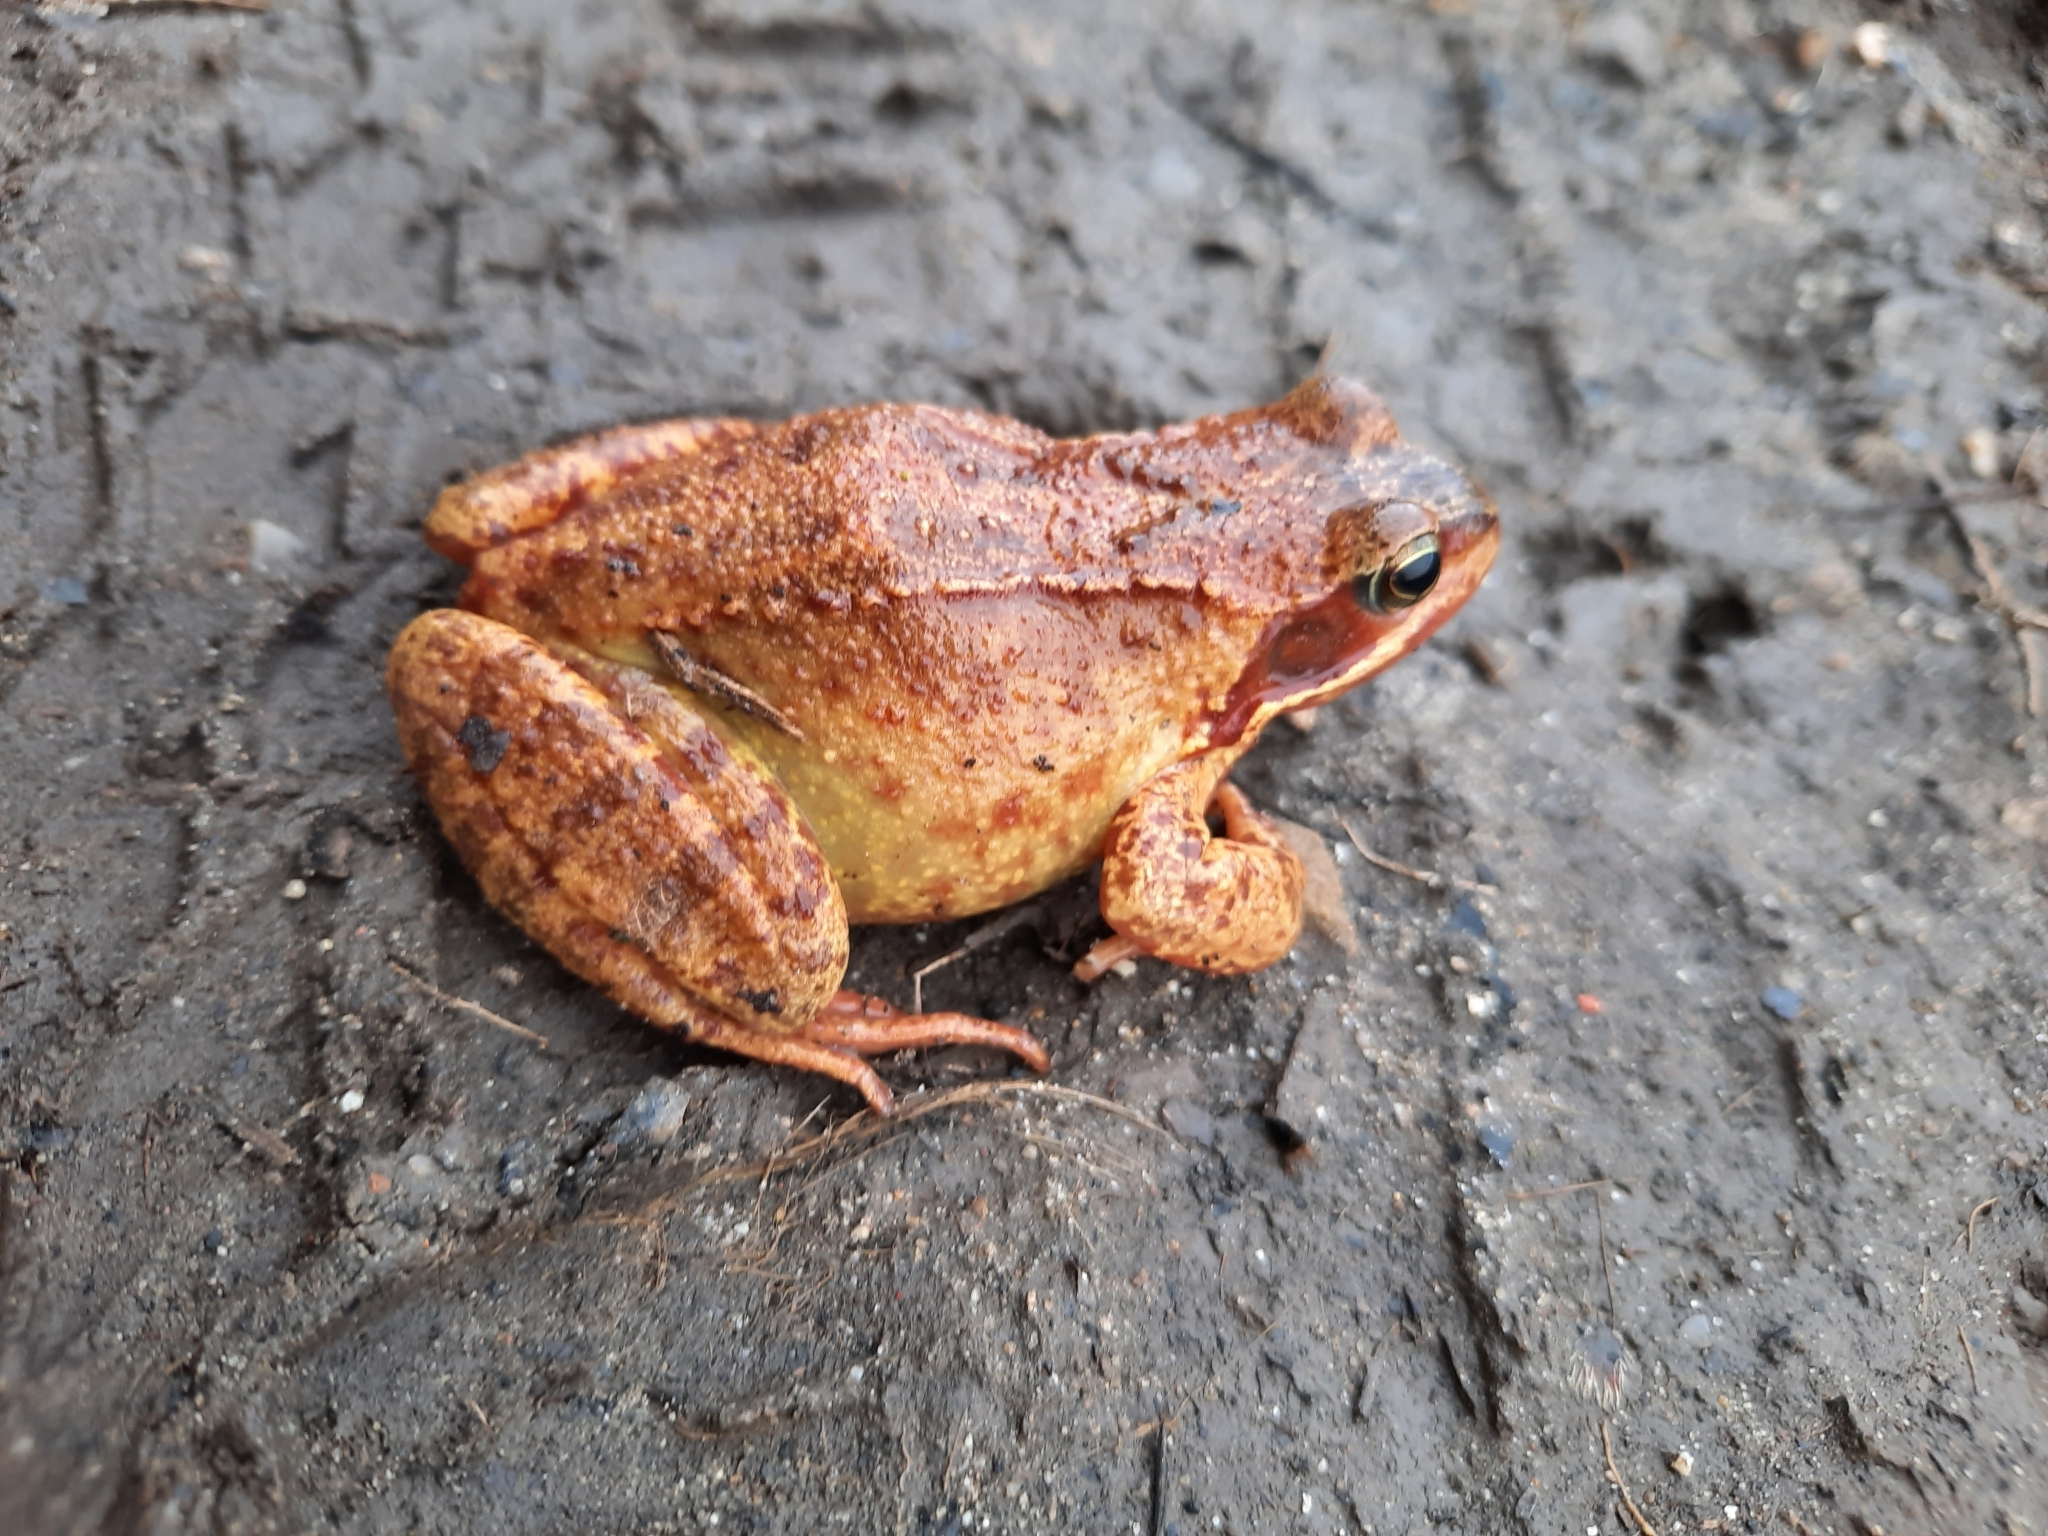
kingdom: Animalia
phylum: Chordata
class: Amphibia
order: Anura
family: Ranidae
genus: Rana
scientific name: Rana temporaria
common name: Common frog
